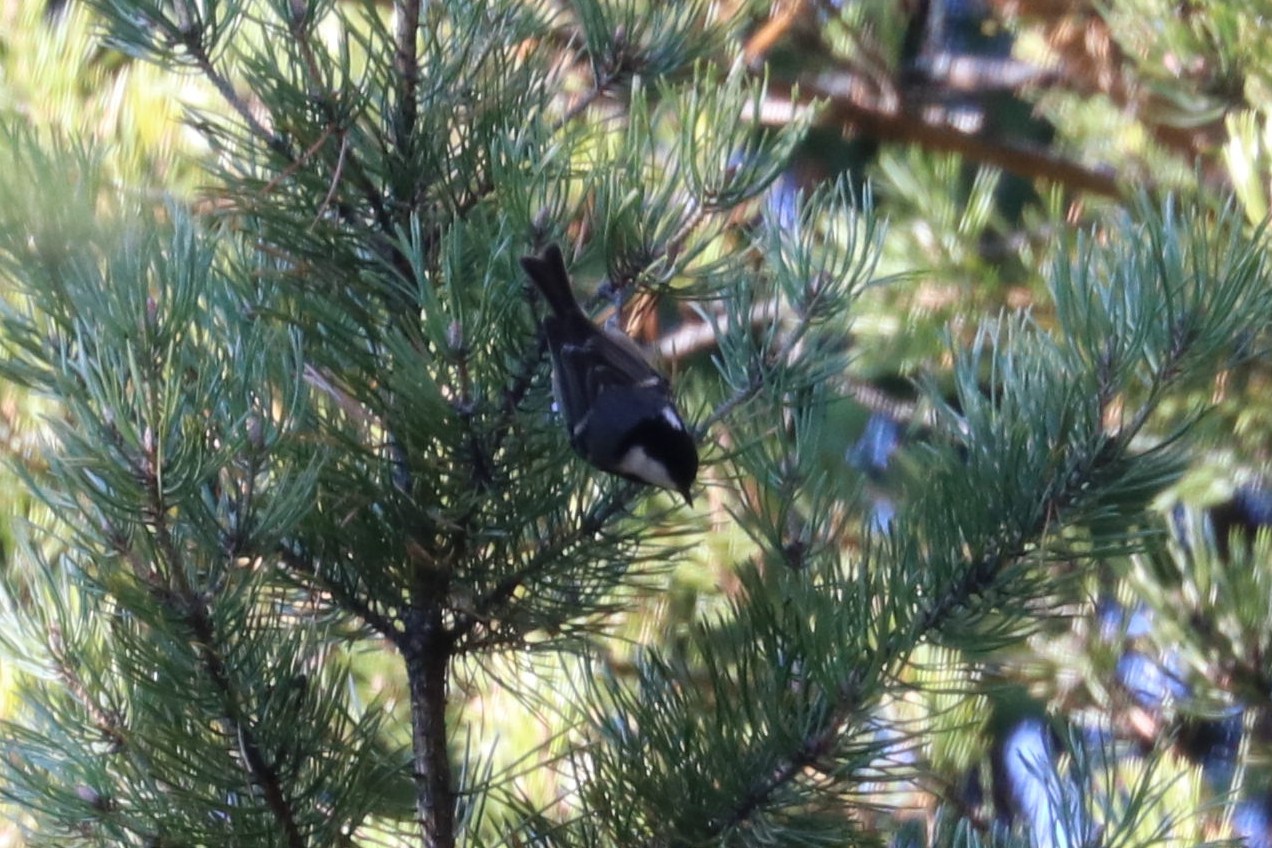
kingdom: Animalia
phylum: Chordata
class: Aves
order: Passeriformes
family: Paridae
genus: Periparus
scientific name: Periparus ater
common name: Coal tit
